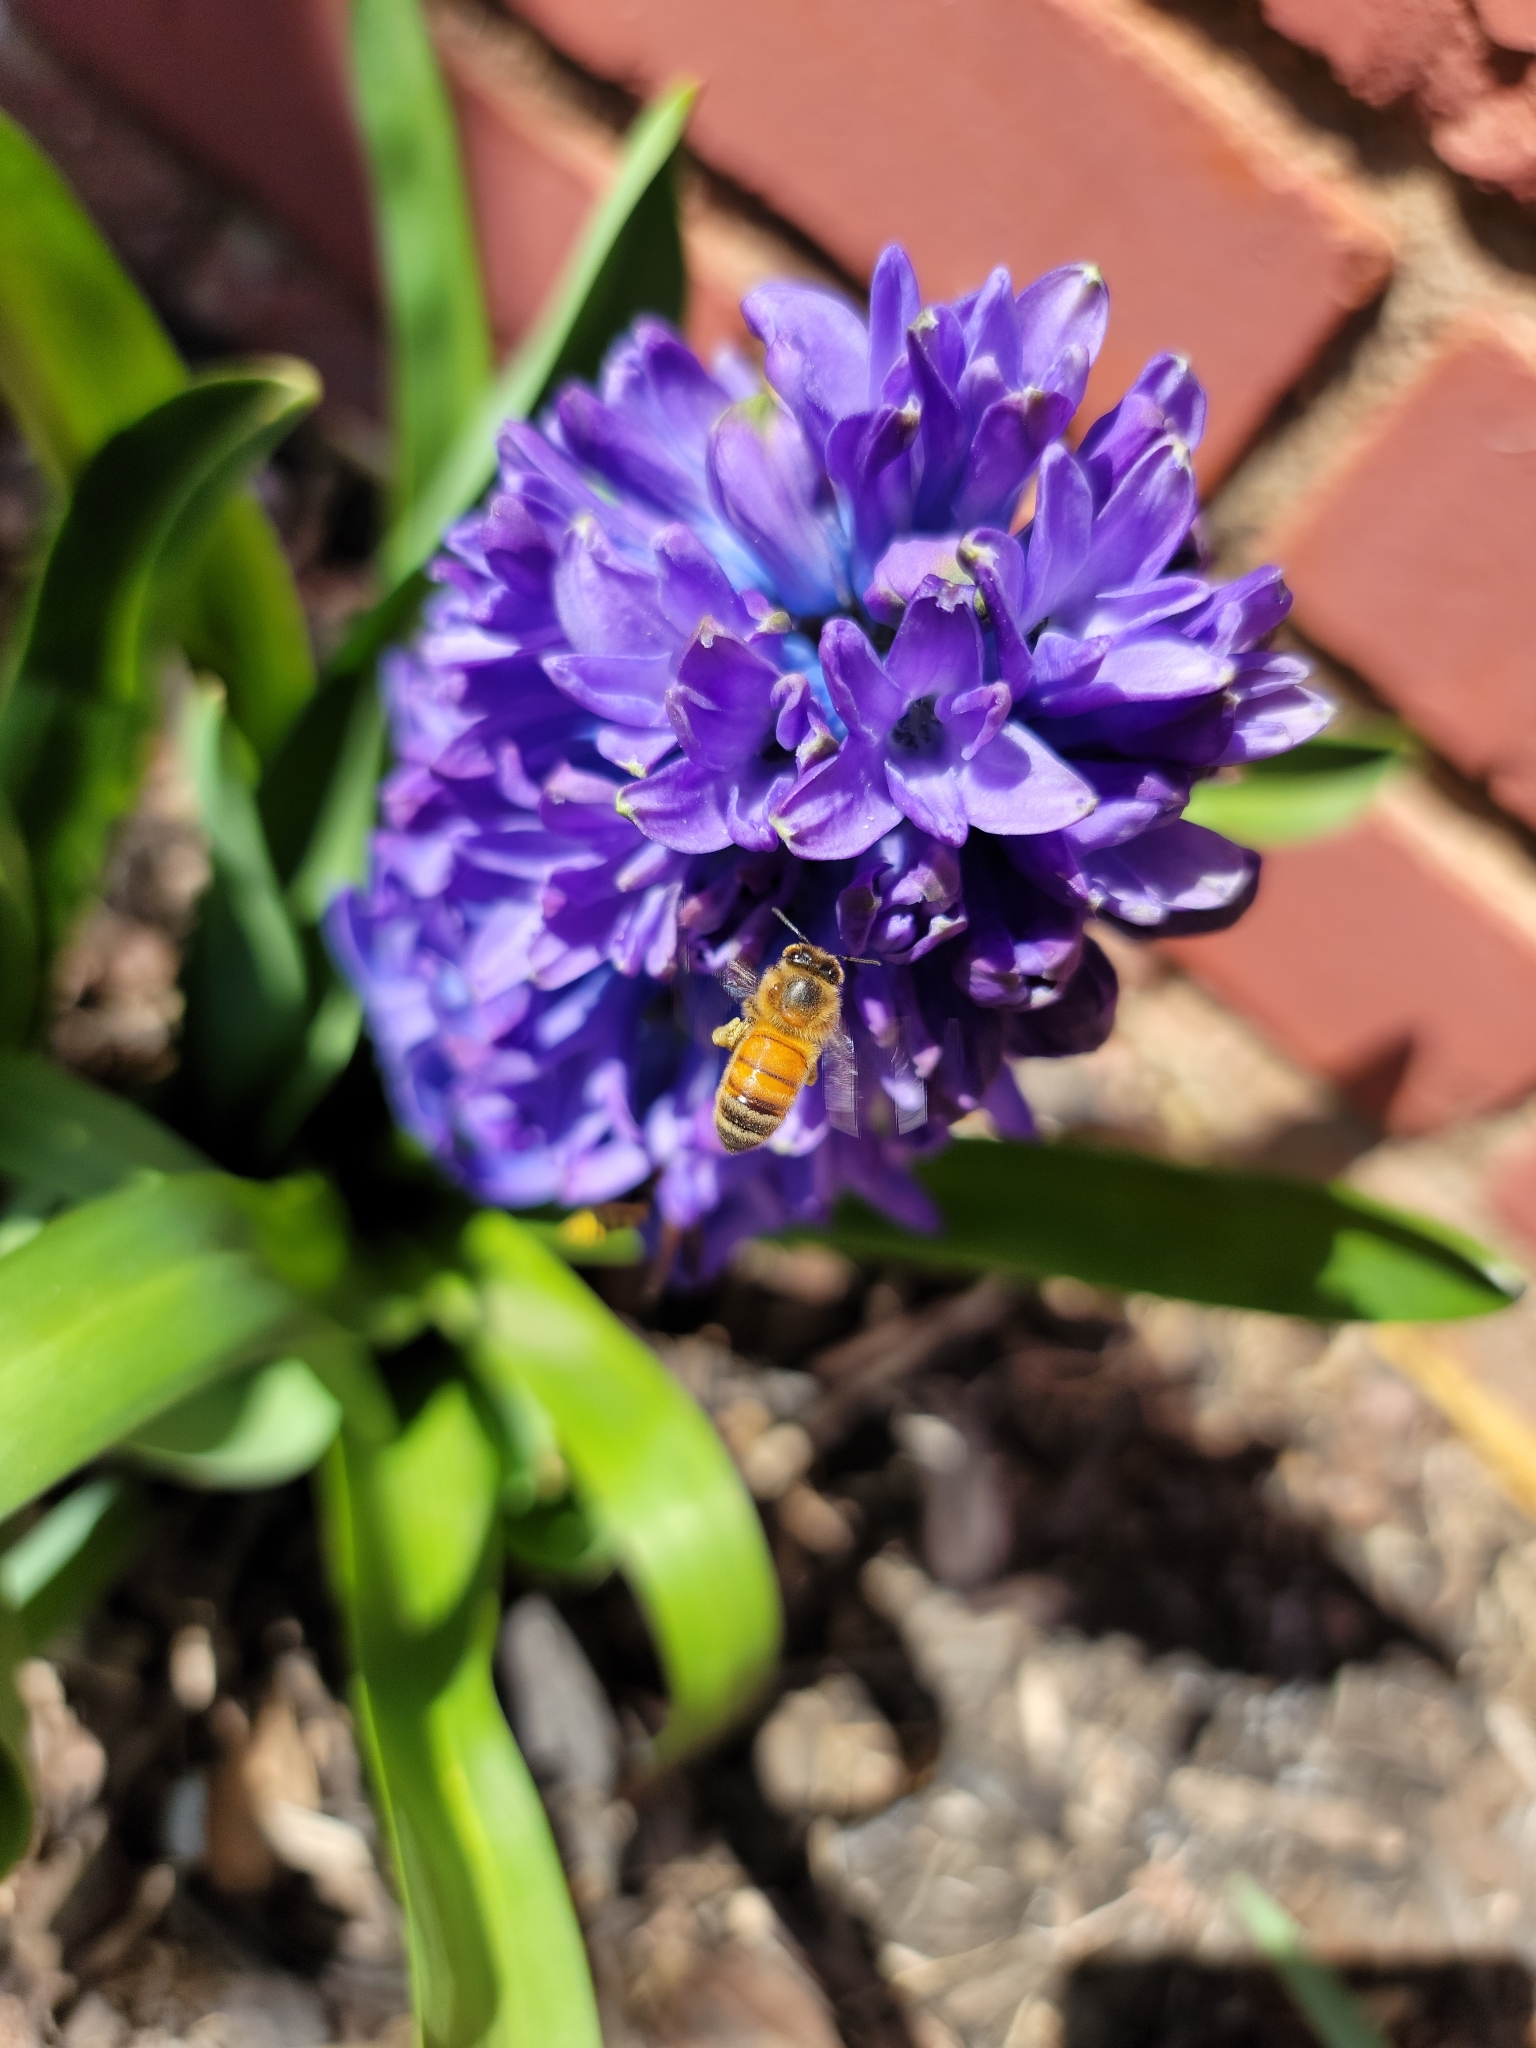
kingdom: Animalia
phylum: Arthropoda
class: Insecta
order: Hymenoptera
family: Apidae
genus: Apis
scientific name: Apis mellifera
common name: Honey bee
